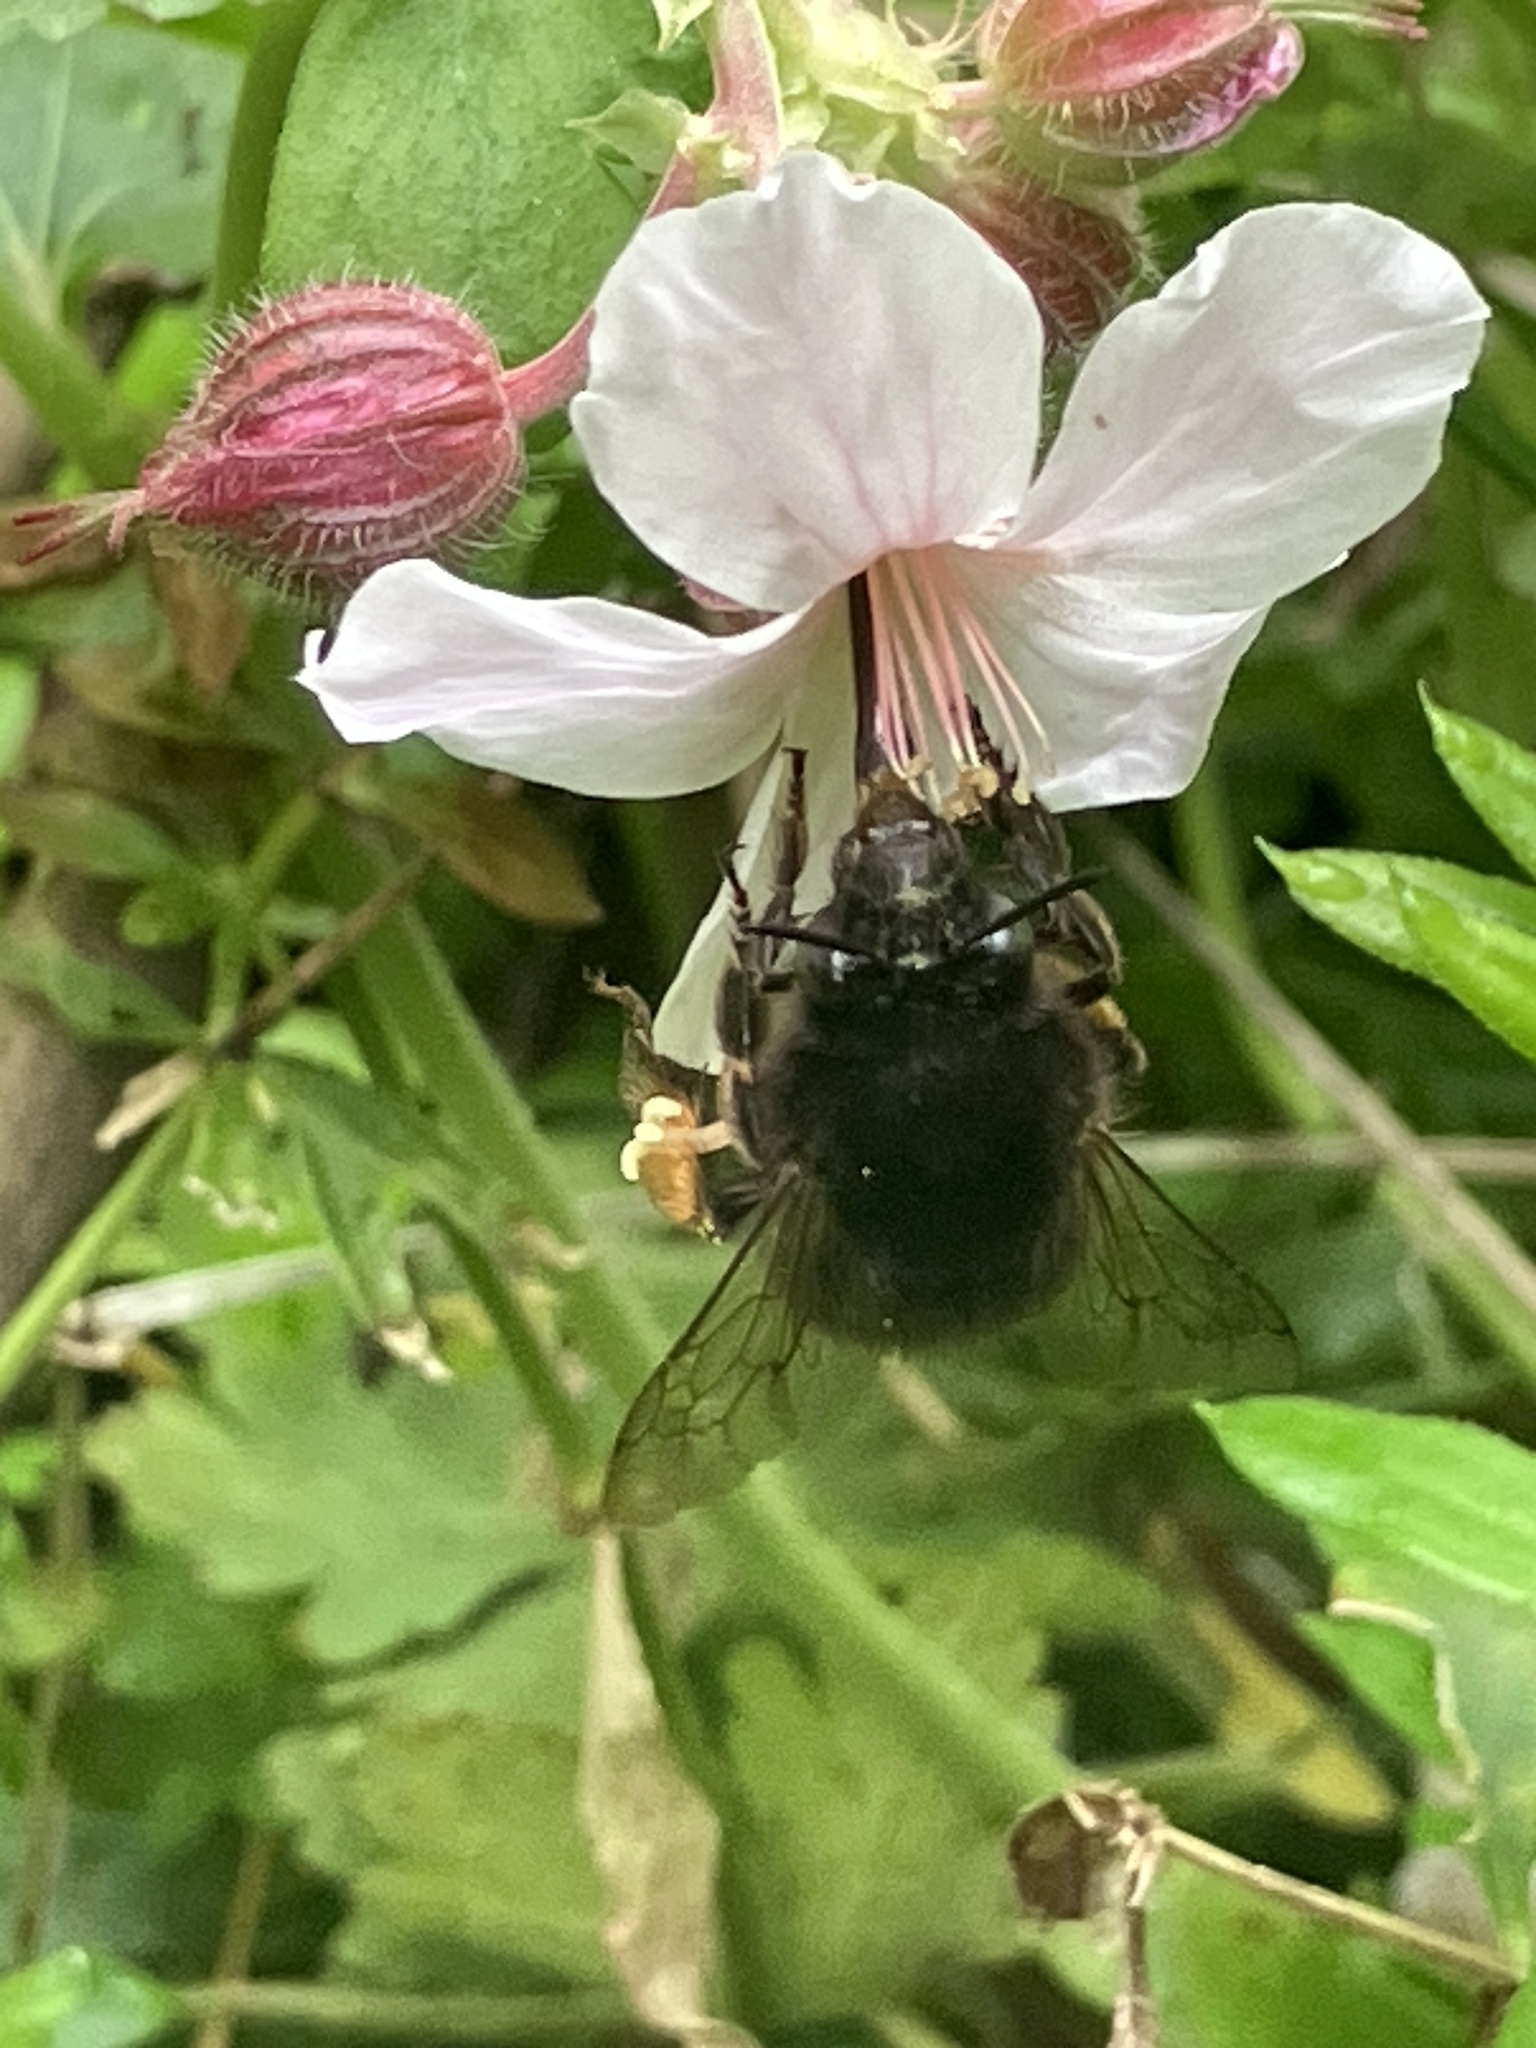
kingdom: Animalia
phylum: Arthropoda
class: Insecta
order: Hymenoptera
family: Apidae
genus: Anthophora
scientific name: Anthophora plumipes
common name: Hairy-footed flower bee
